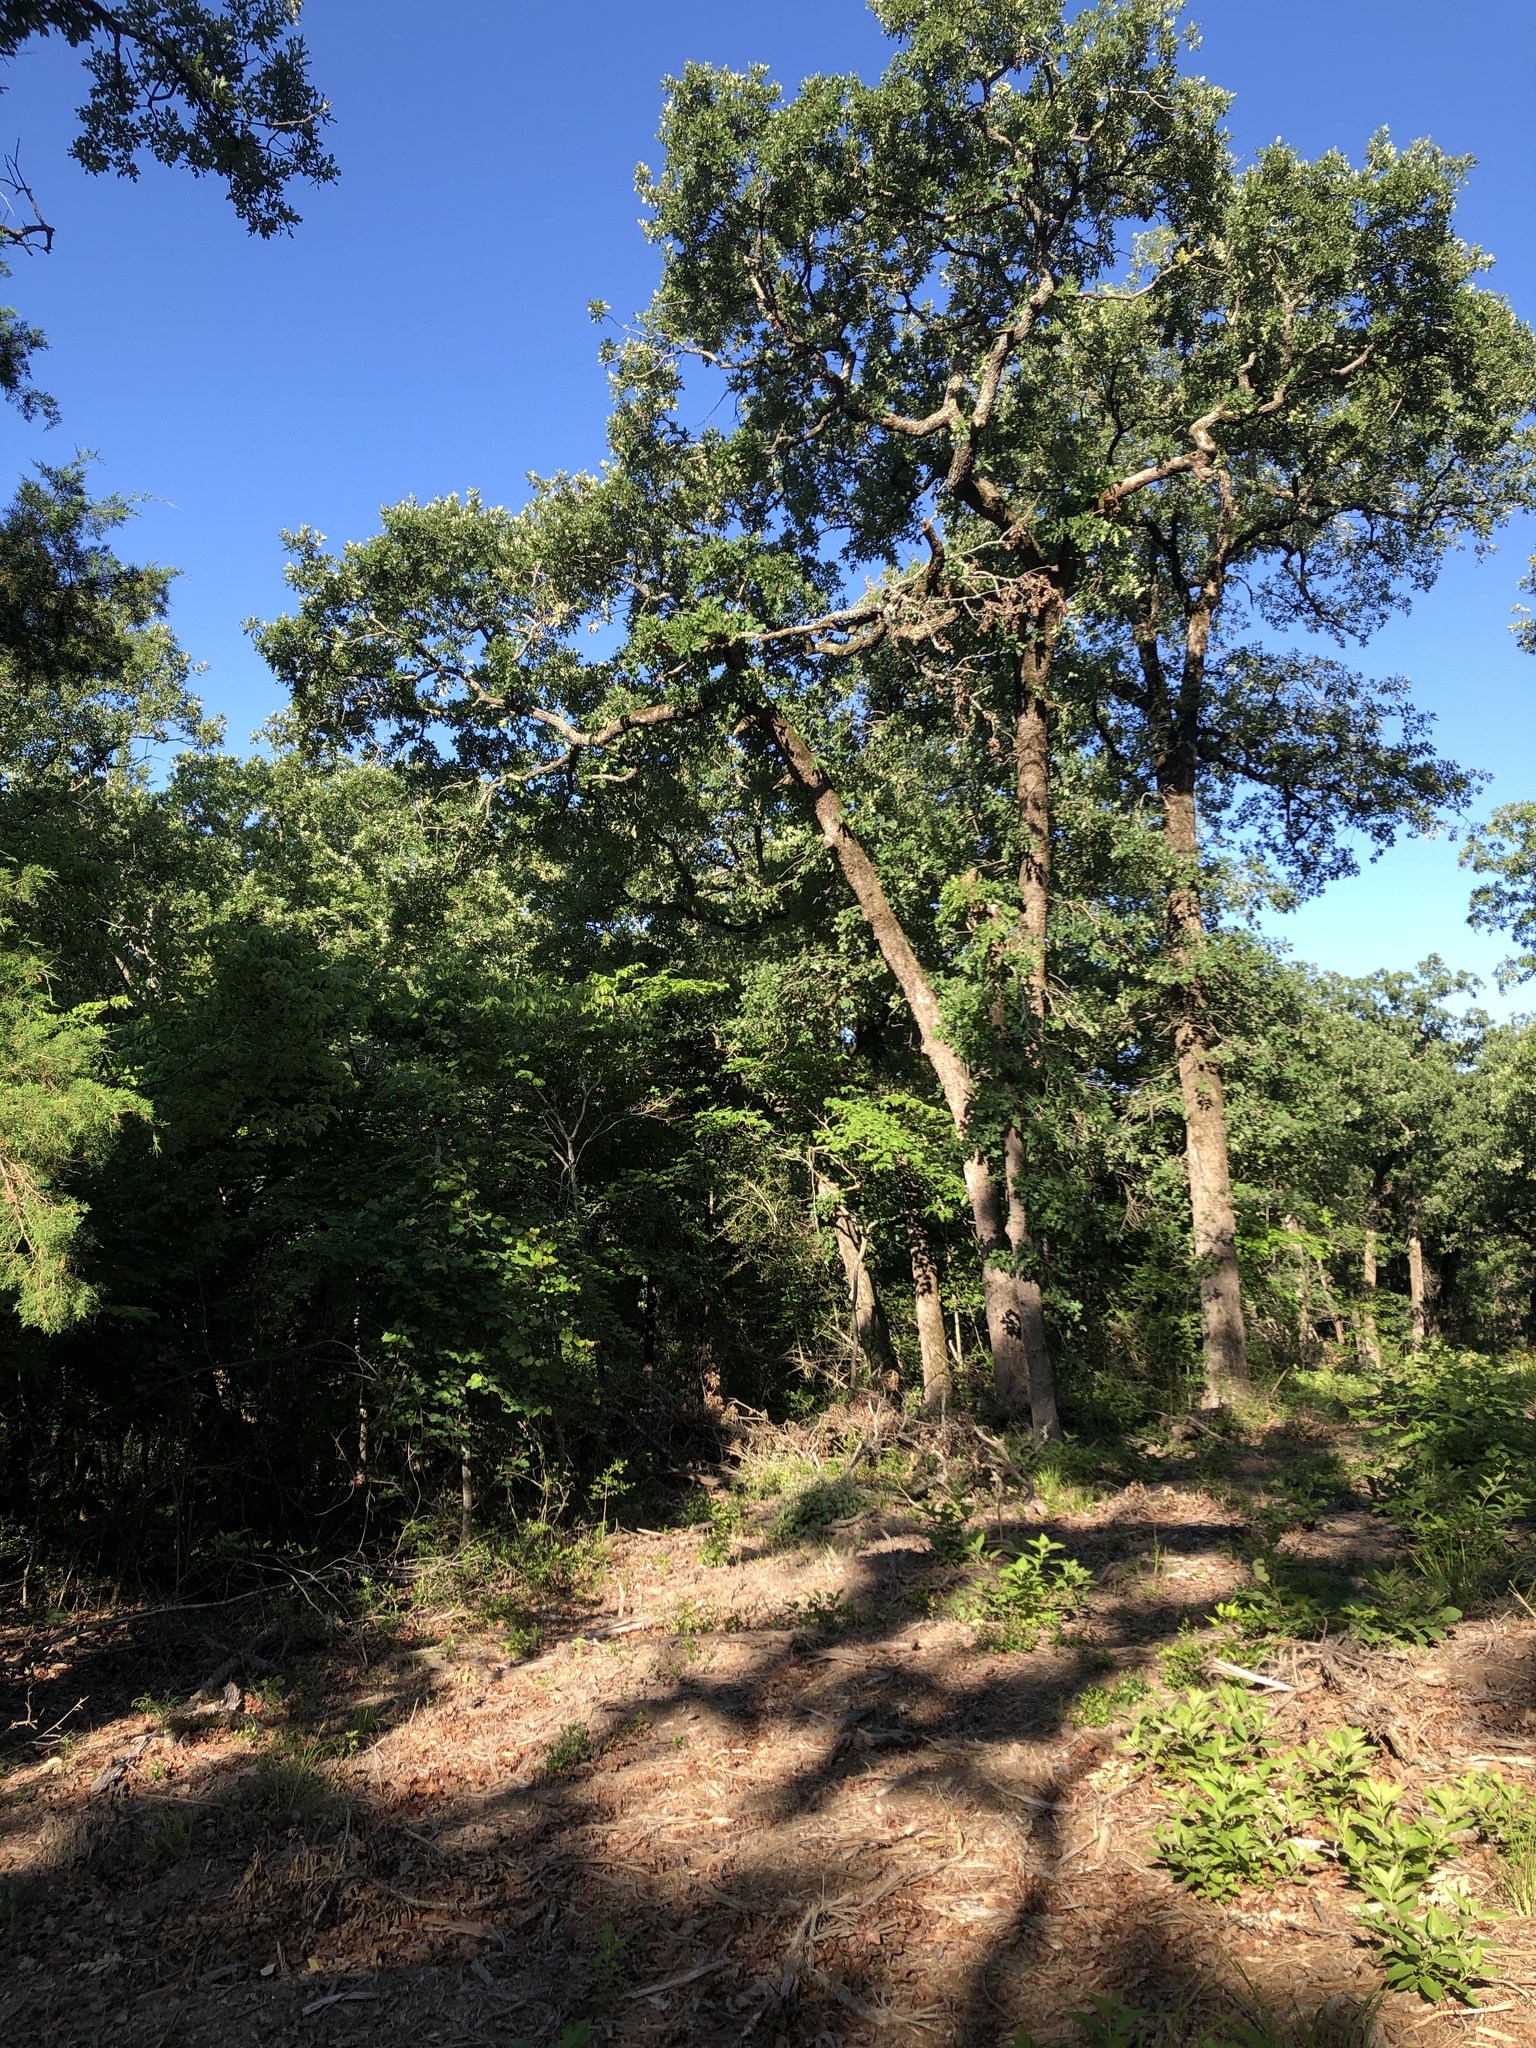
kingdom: Animalia
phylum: Chordata
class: Aves
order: Passeriformes
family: Polioptilidae
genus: Polioptila
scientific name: Polioptila caerulea
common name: Blue-gray gnatcatcher
